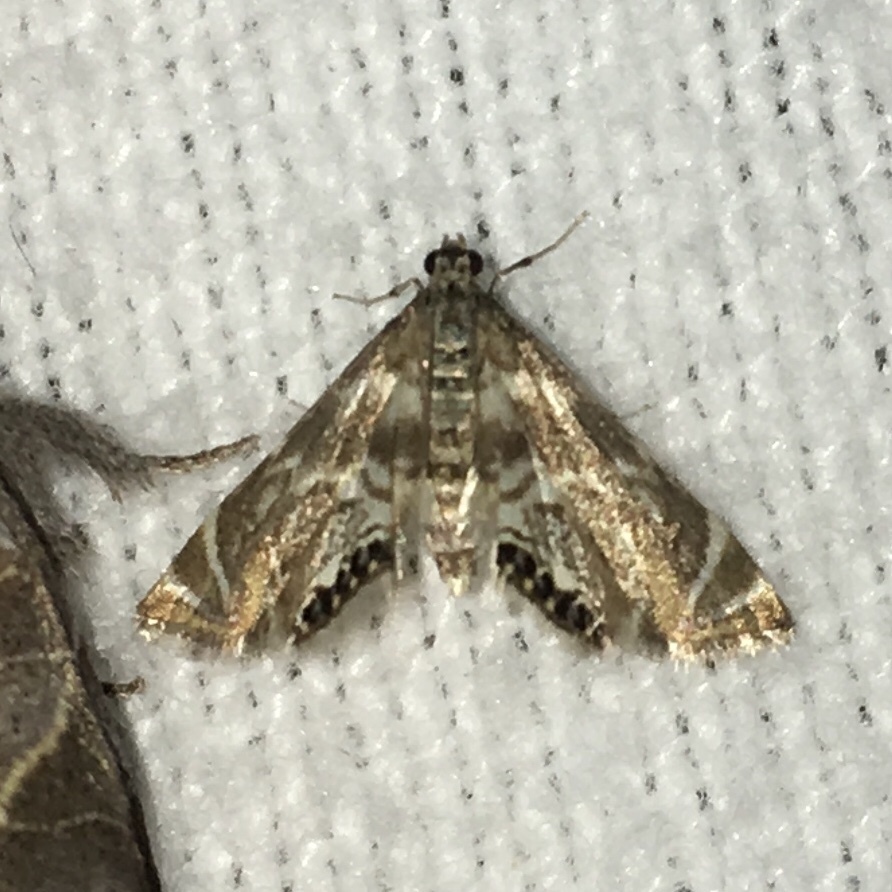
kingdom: Animalia
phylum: Arthropoda
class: Insecta
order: Lepidoptera
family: Crambidae
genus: Petrophila
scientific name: Petrophila canadensis
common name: Canadian petrophila
